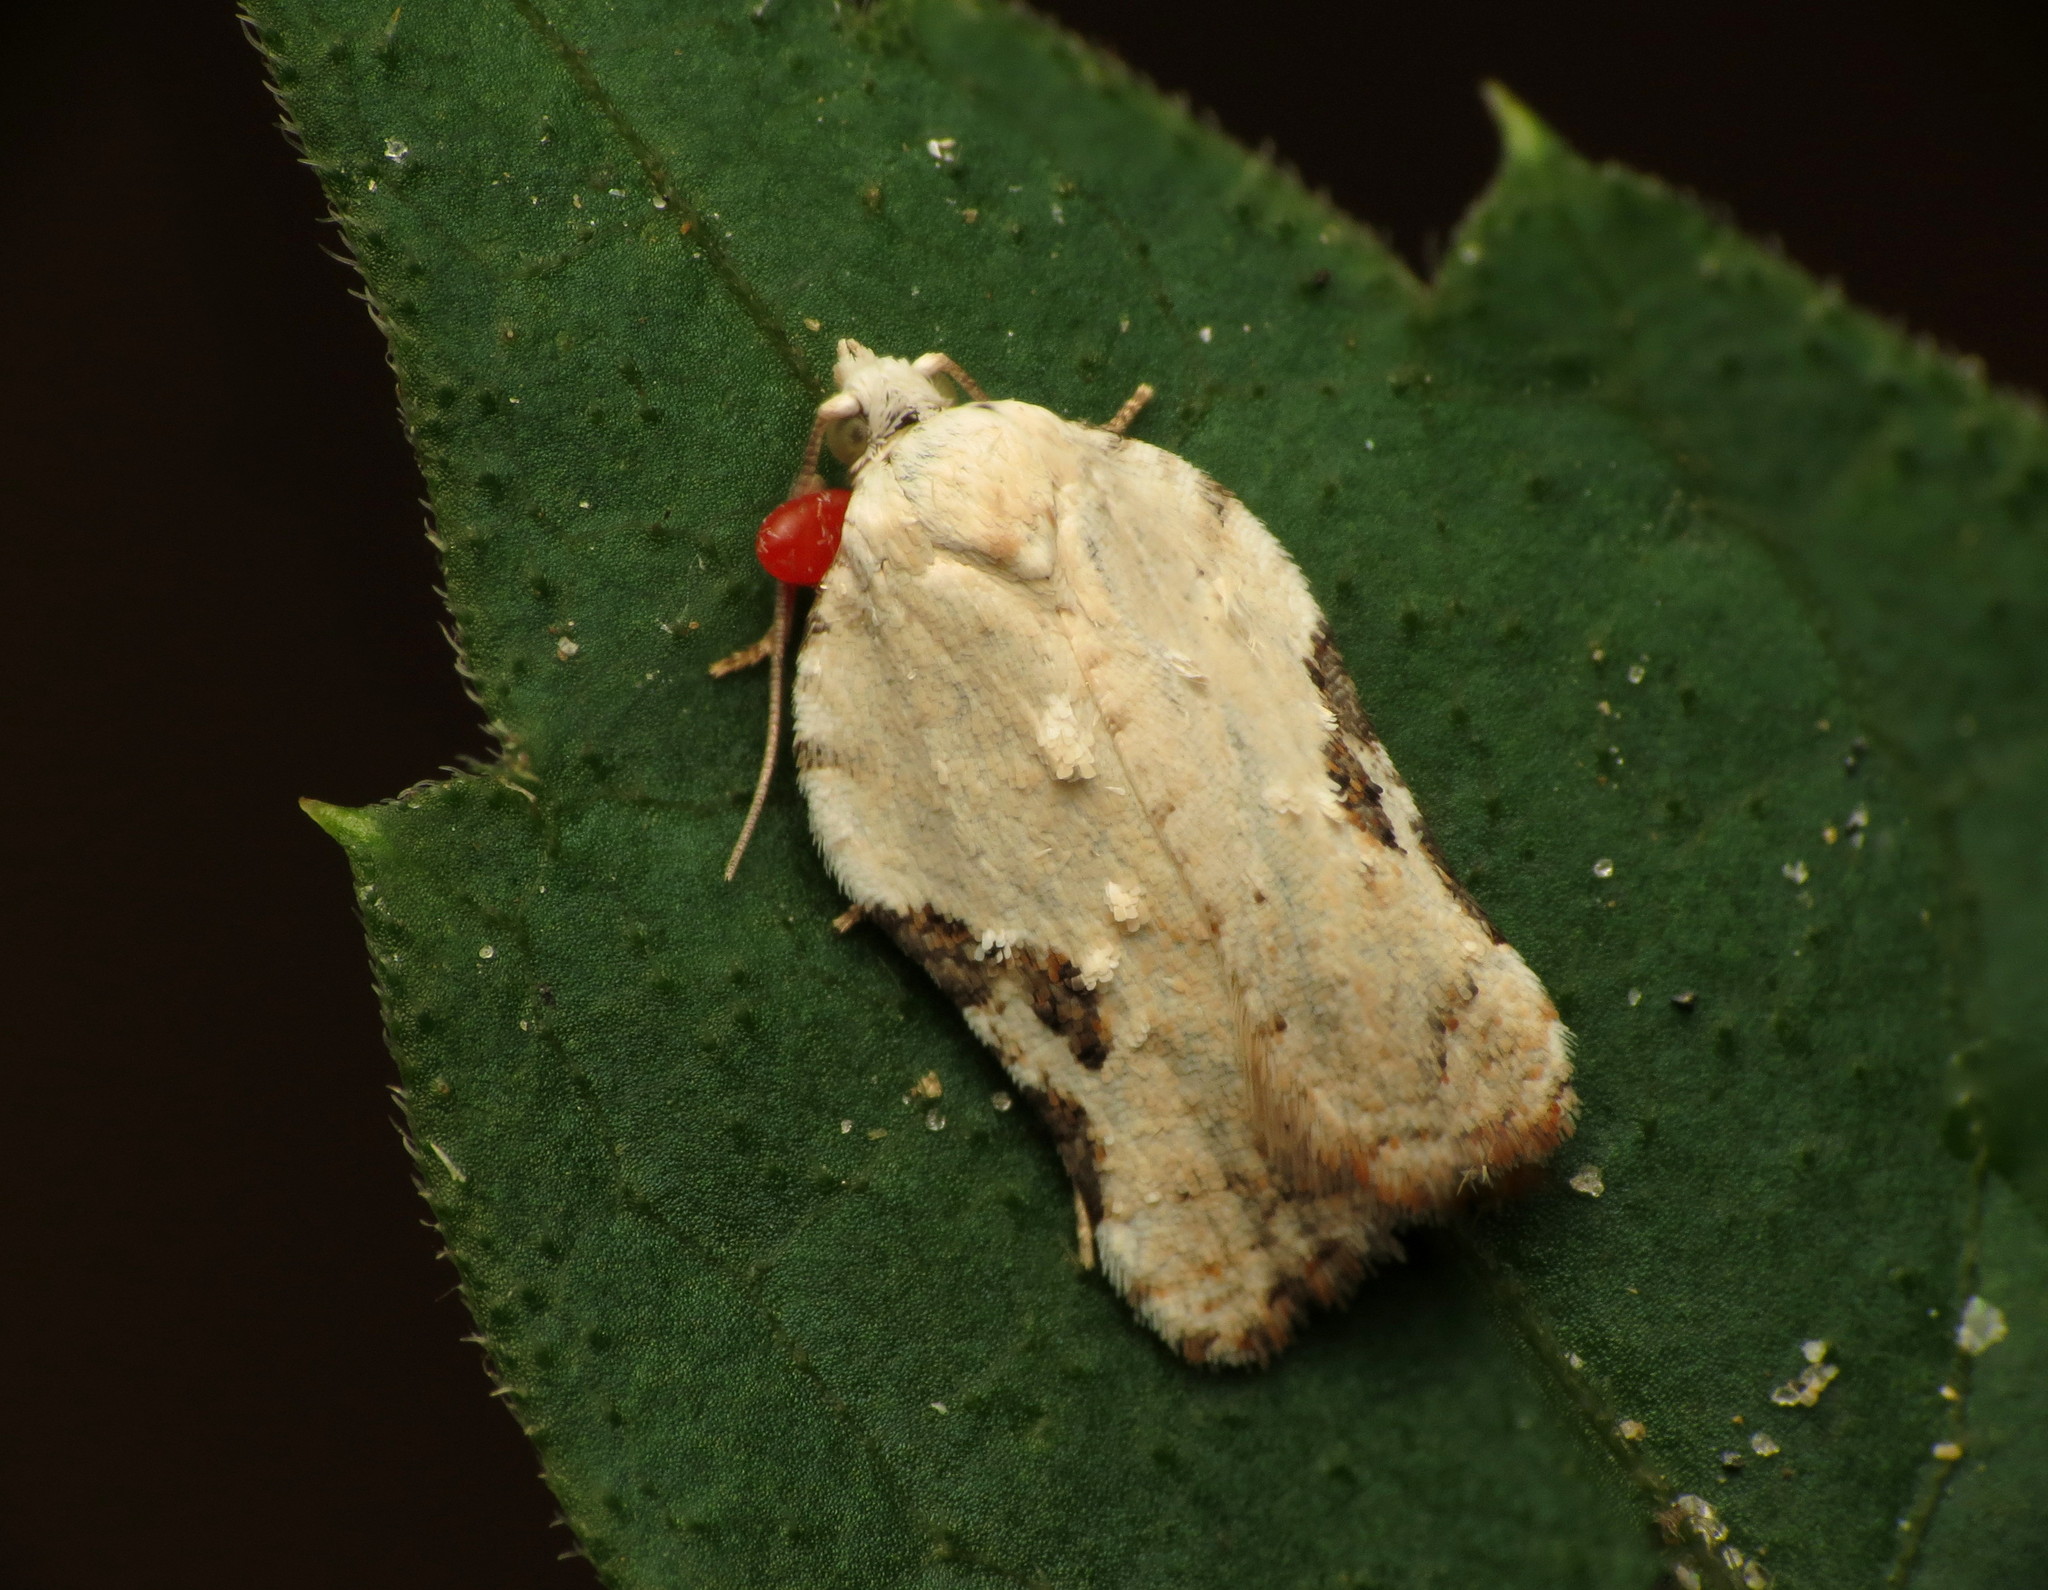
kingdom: Animalia
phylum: Arthropoda
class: Insecta
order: Lepidoptera
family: Tortricidae
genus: Acleris
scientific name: Acleris subnivana
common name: Bent-winged acleris moth
